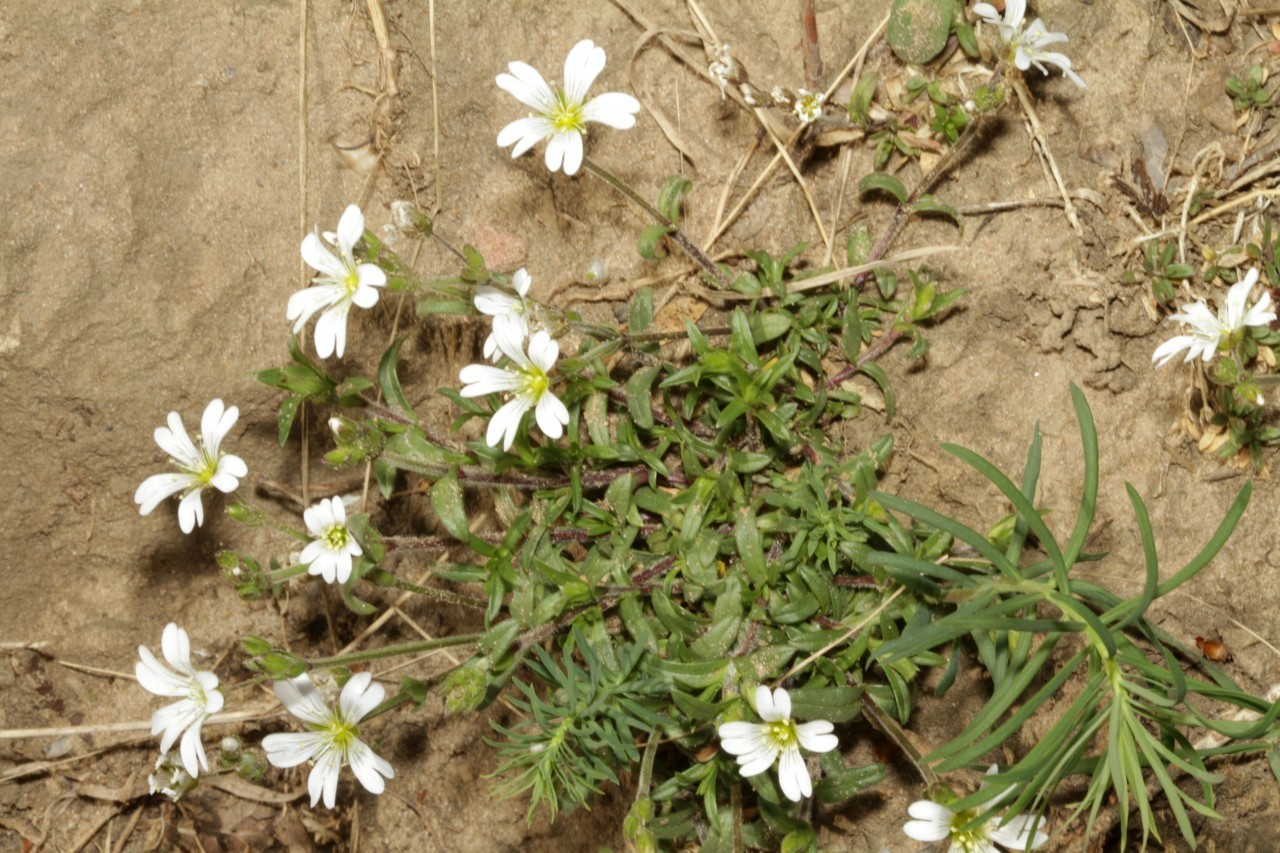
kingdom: Plantae
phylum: Tracheophyta
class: Magnoliopsida
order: Caryophyllales
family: Caryophyllaceae
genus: Cerastium
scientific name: Cerastium arvense
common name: Field mouse-ear
